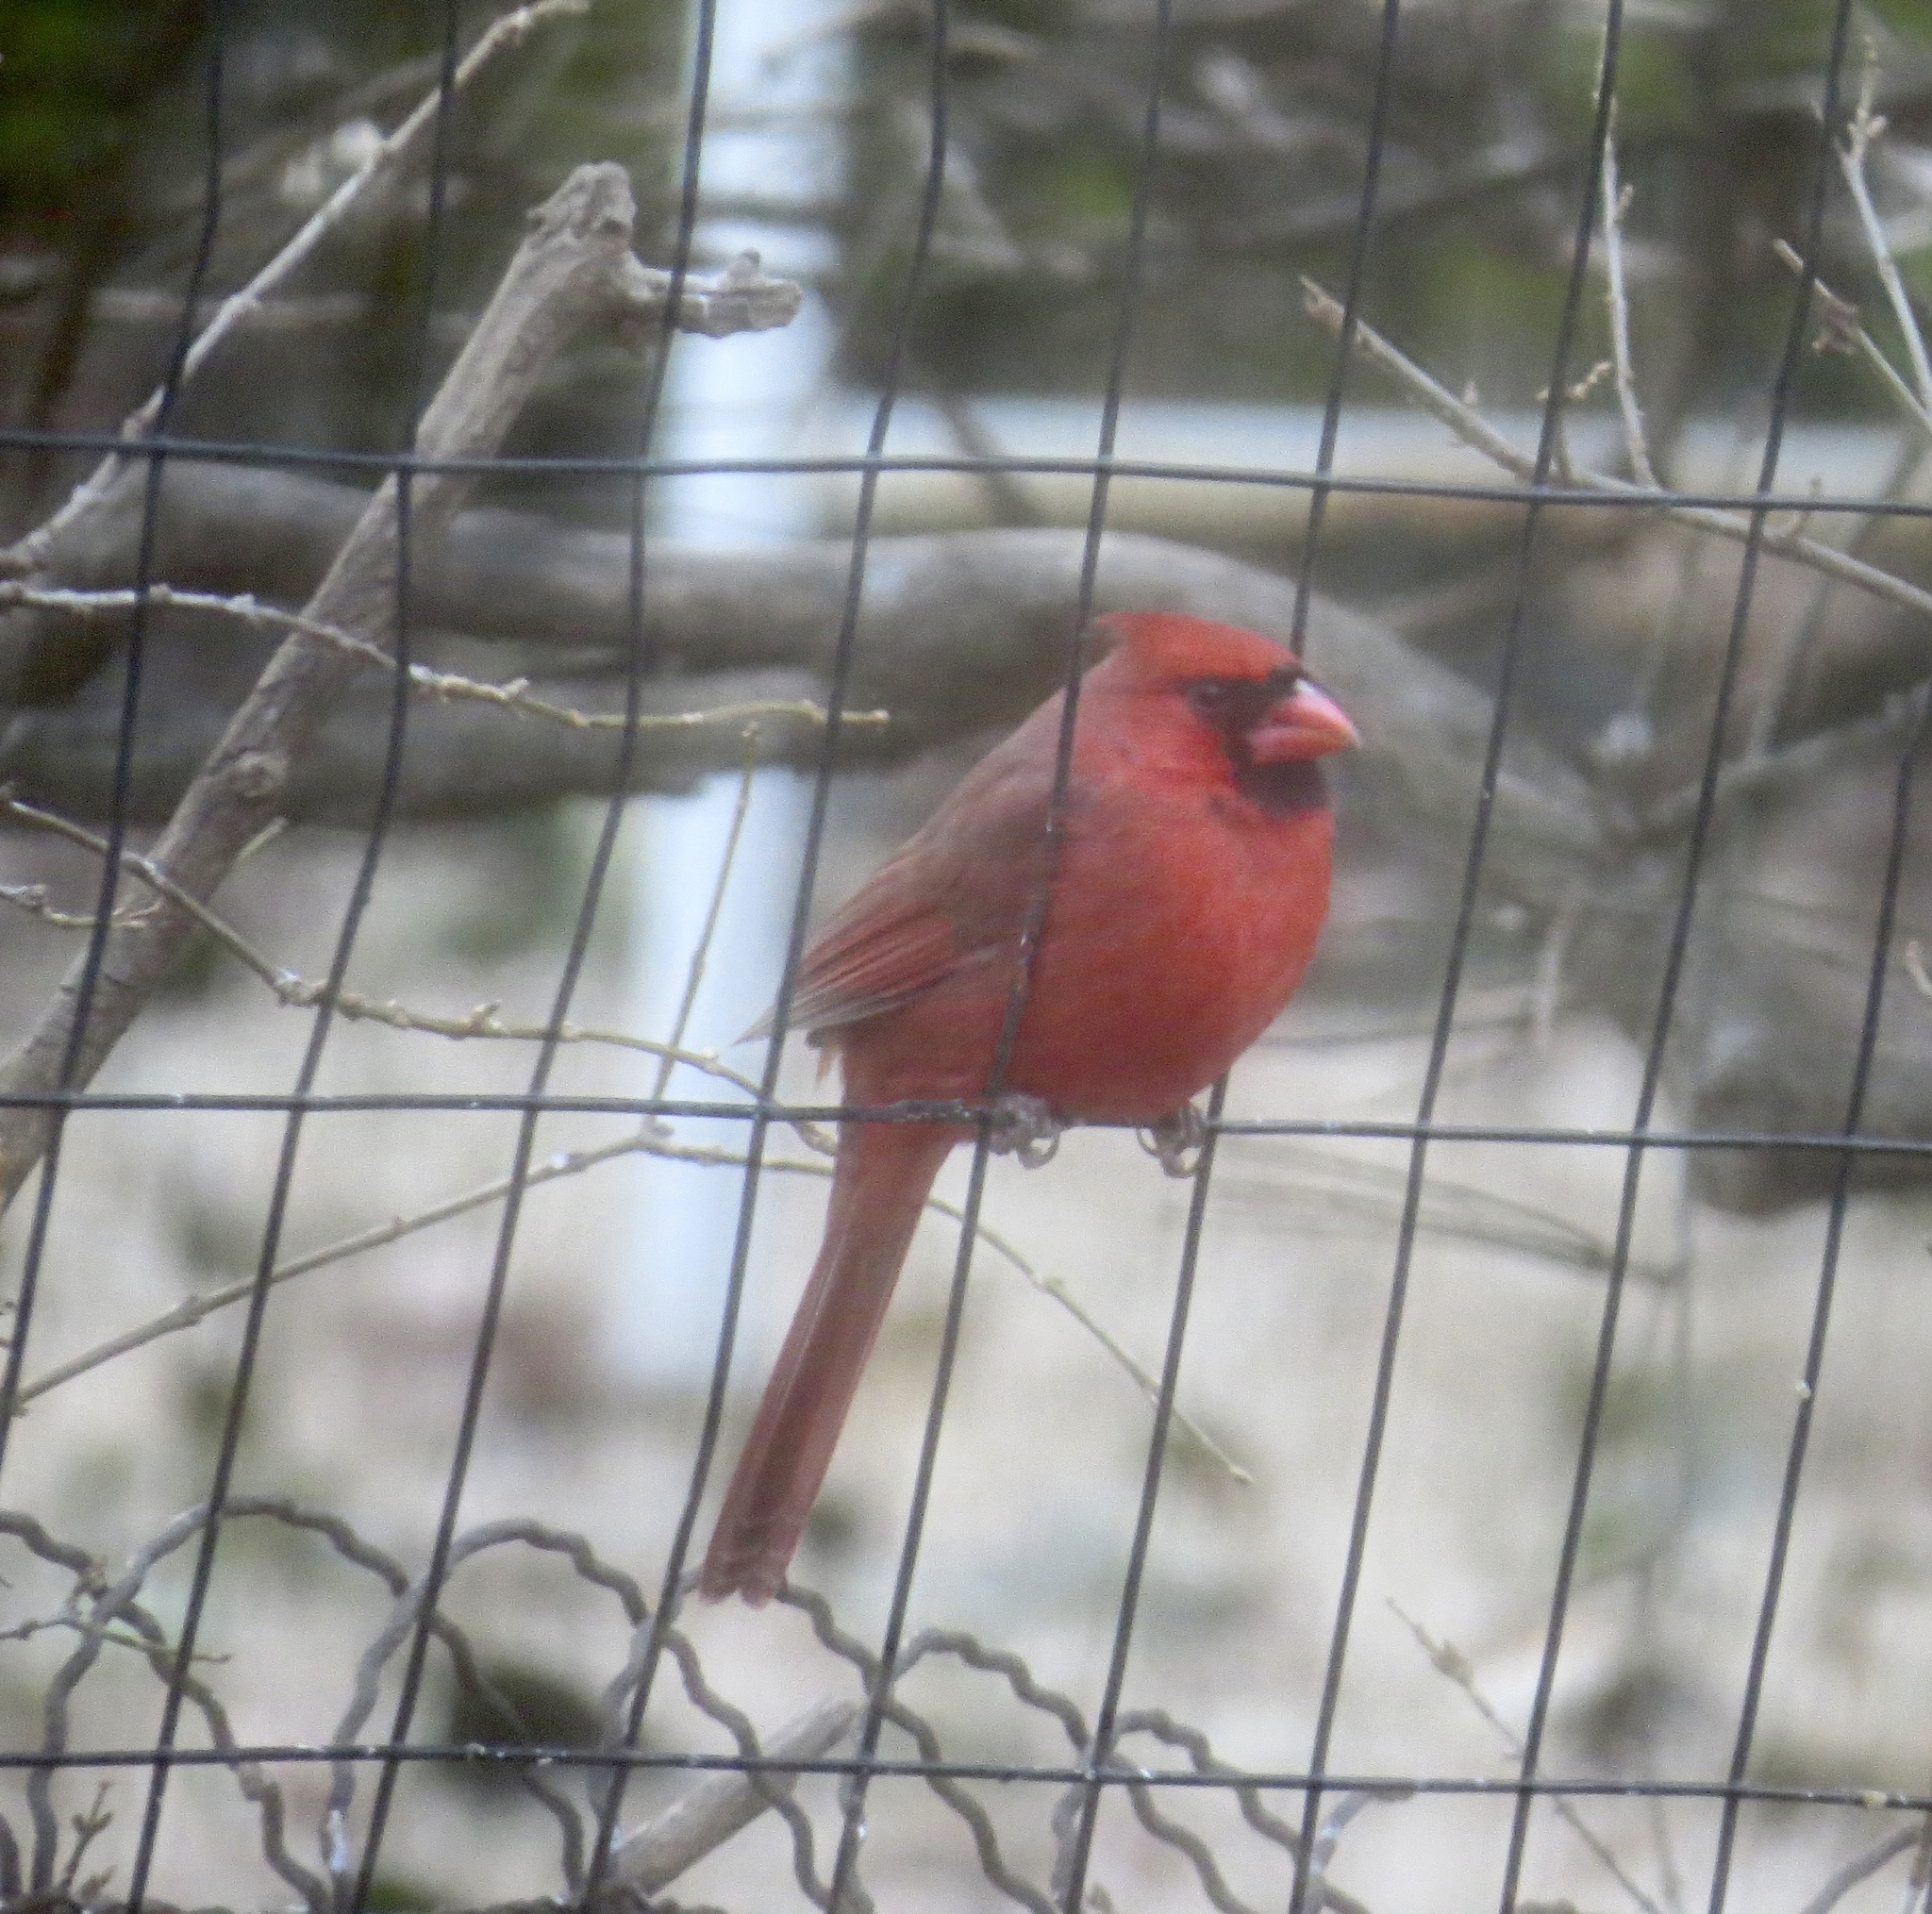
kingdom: Animalia
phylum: Chordata
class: Aves
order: Passeriformes
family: Cardinalidae
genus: Cardinalis
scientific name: Cardinalis cardinalis
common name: Northern cardinal
